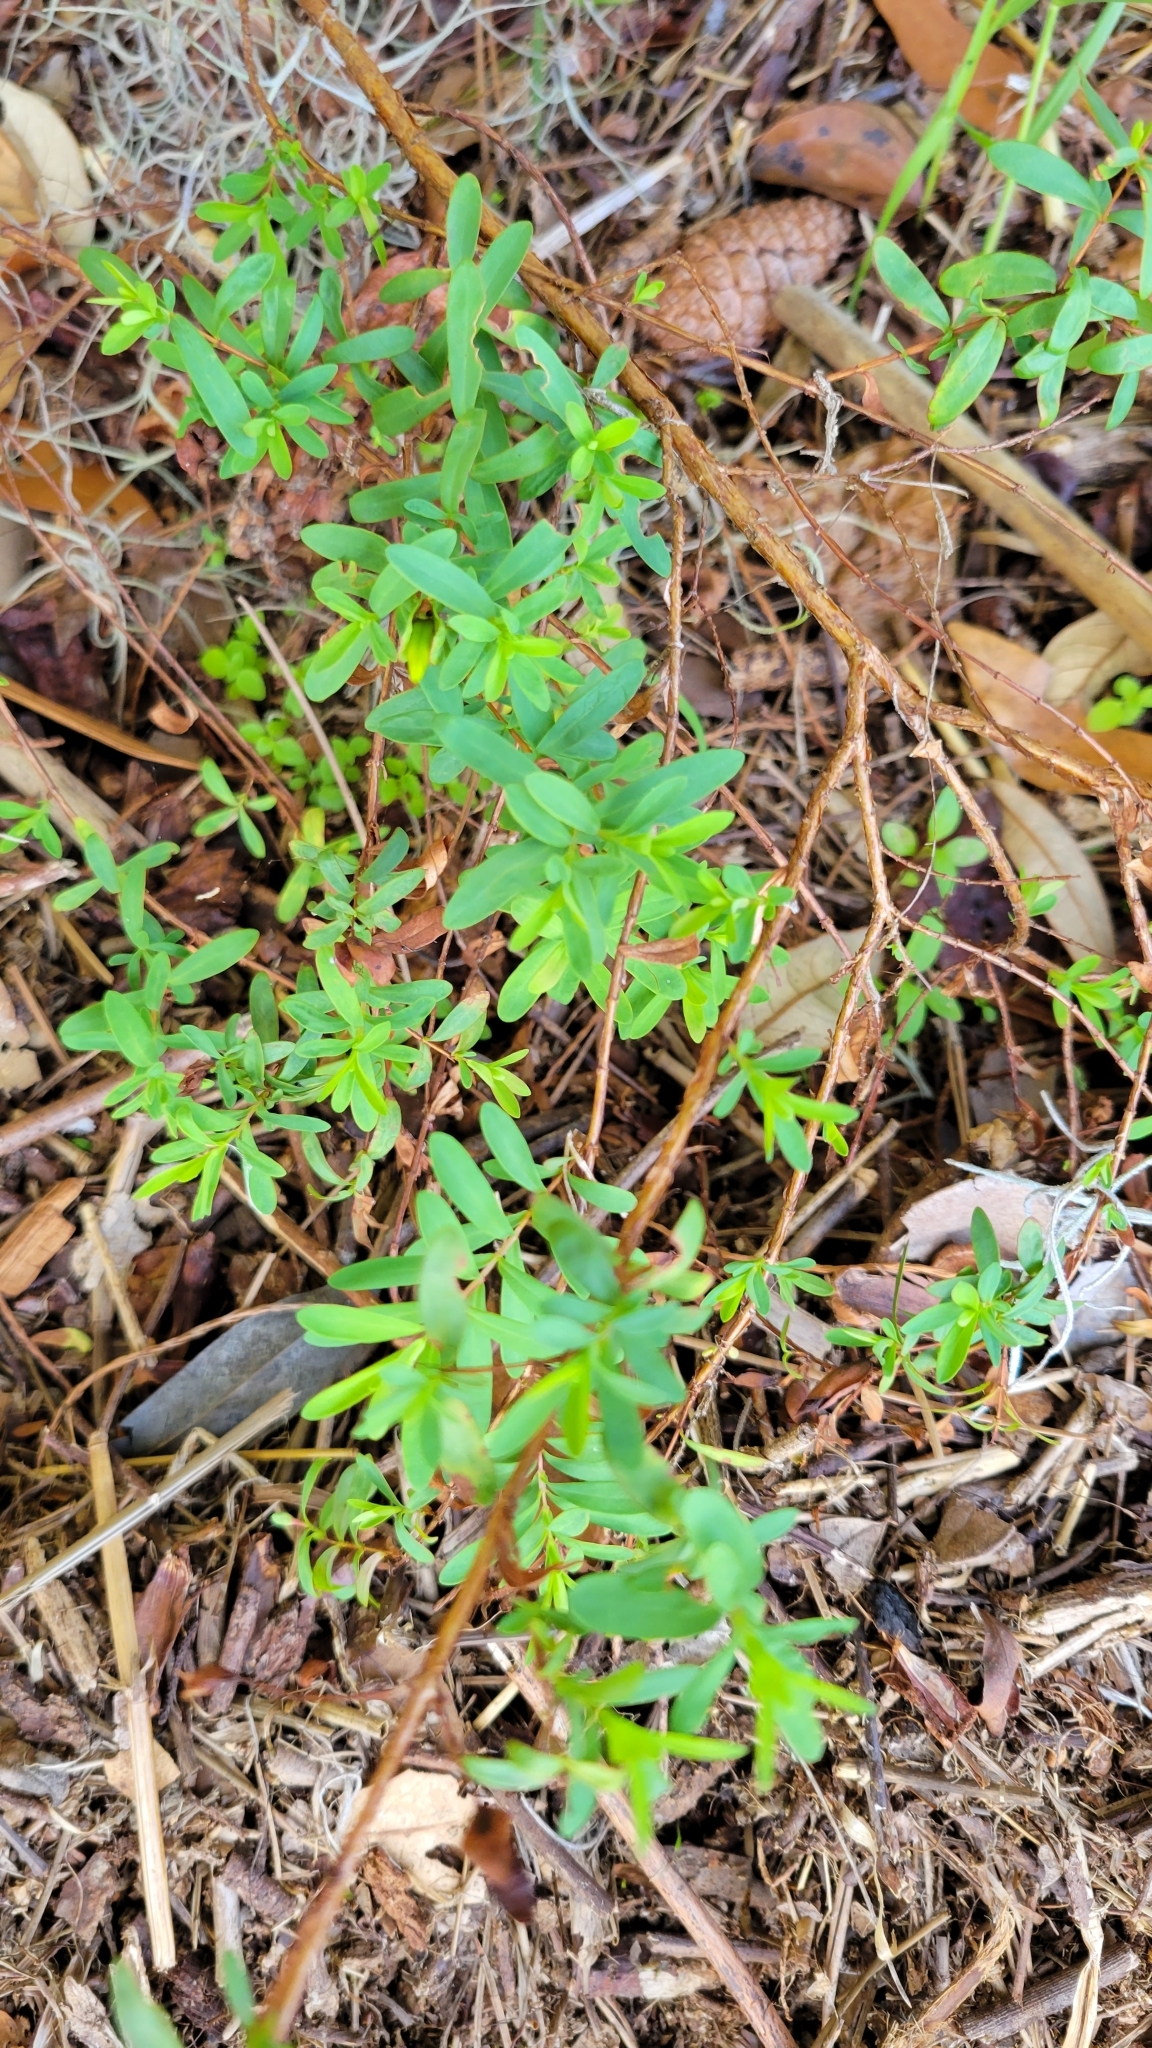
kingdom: Plantae
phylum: Tracheophyta
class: Magnoliopsida
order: Malpighiales
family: Hypericaceae
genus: Hypericum
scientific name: Hypericum hypericoides
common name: St. andrew's cross
